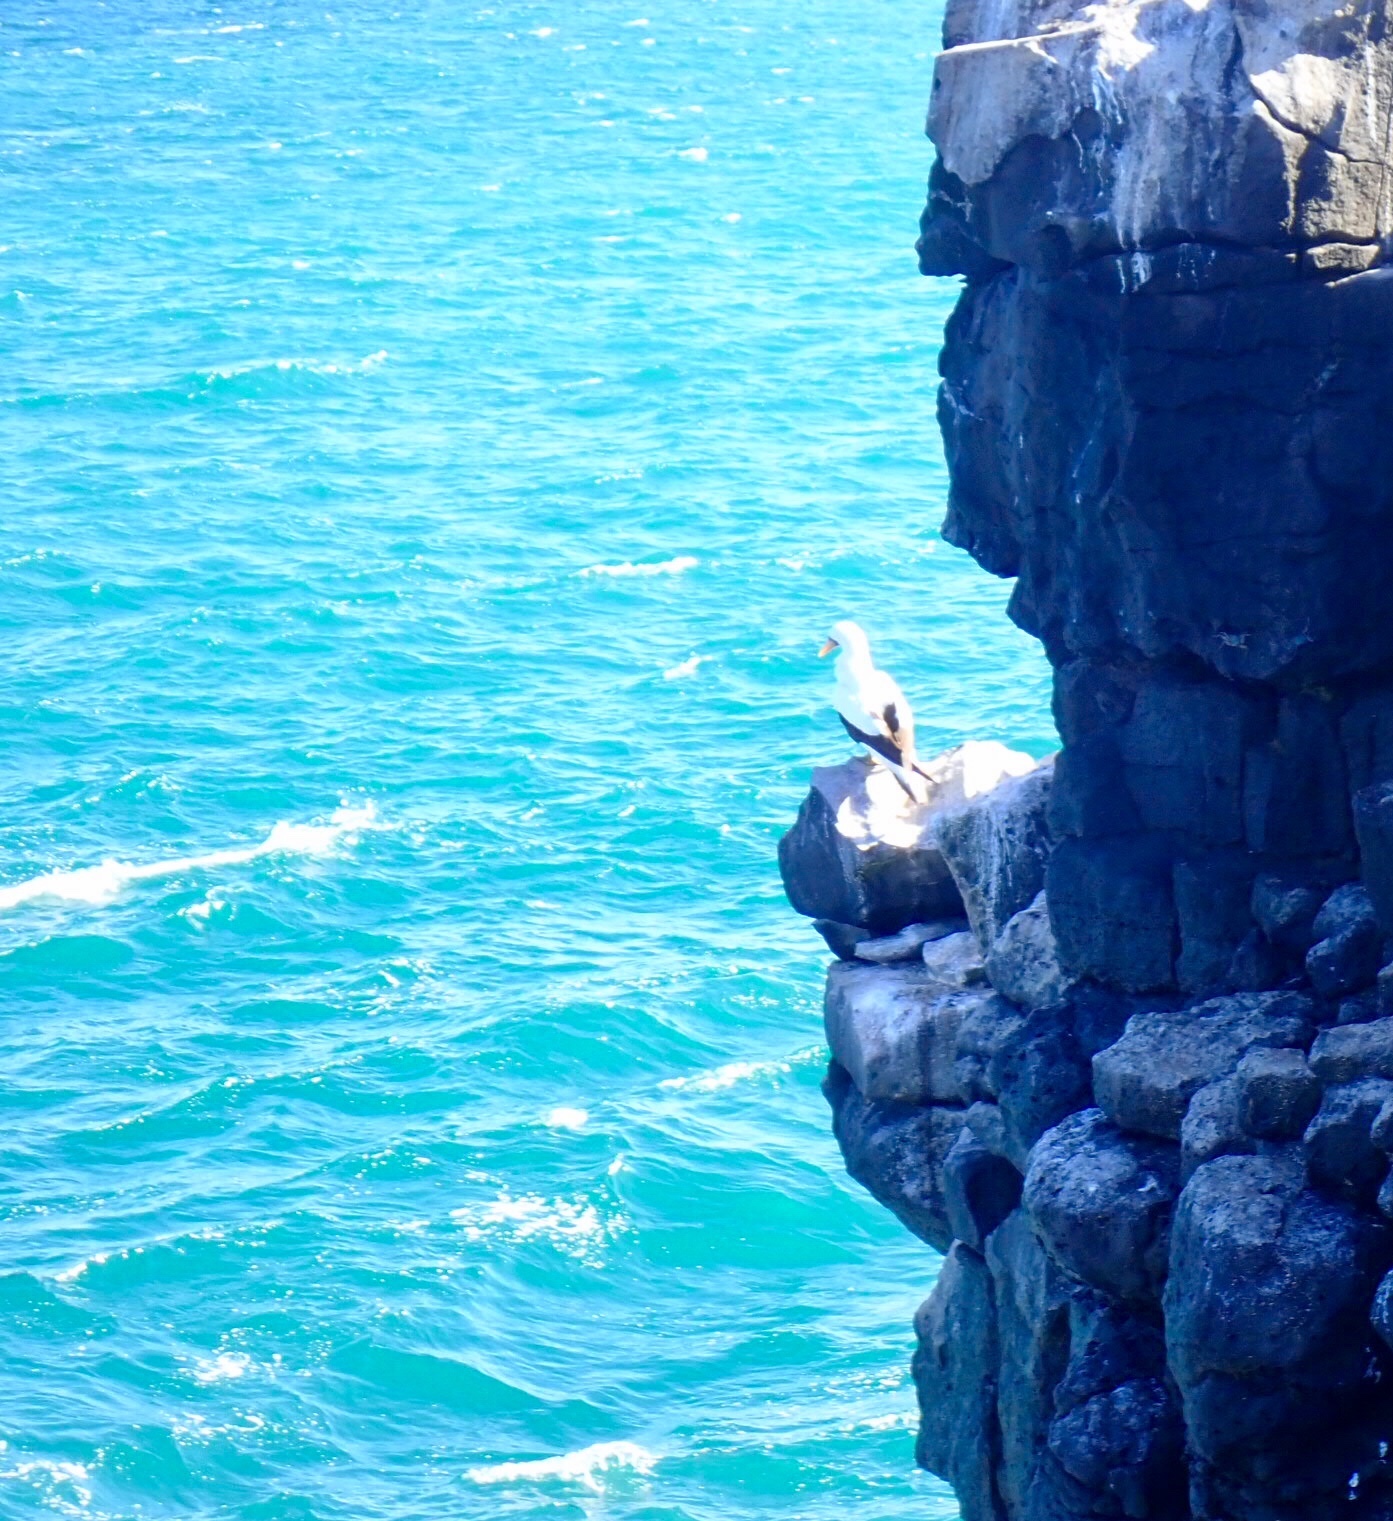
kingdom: Animalia
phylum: Chordata
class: Aves
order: Suliformes
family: Sulidae
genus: Sula
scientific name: Sula granti
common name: Nazca booby
